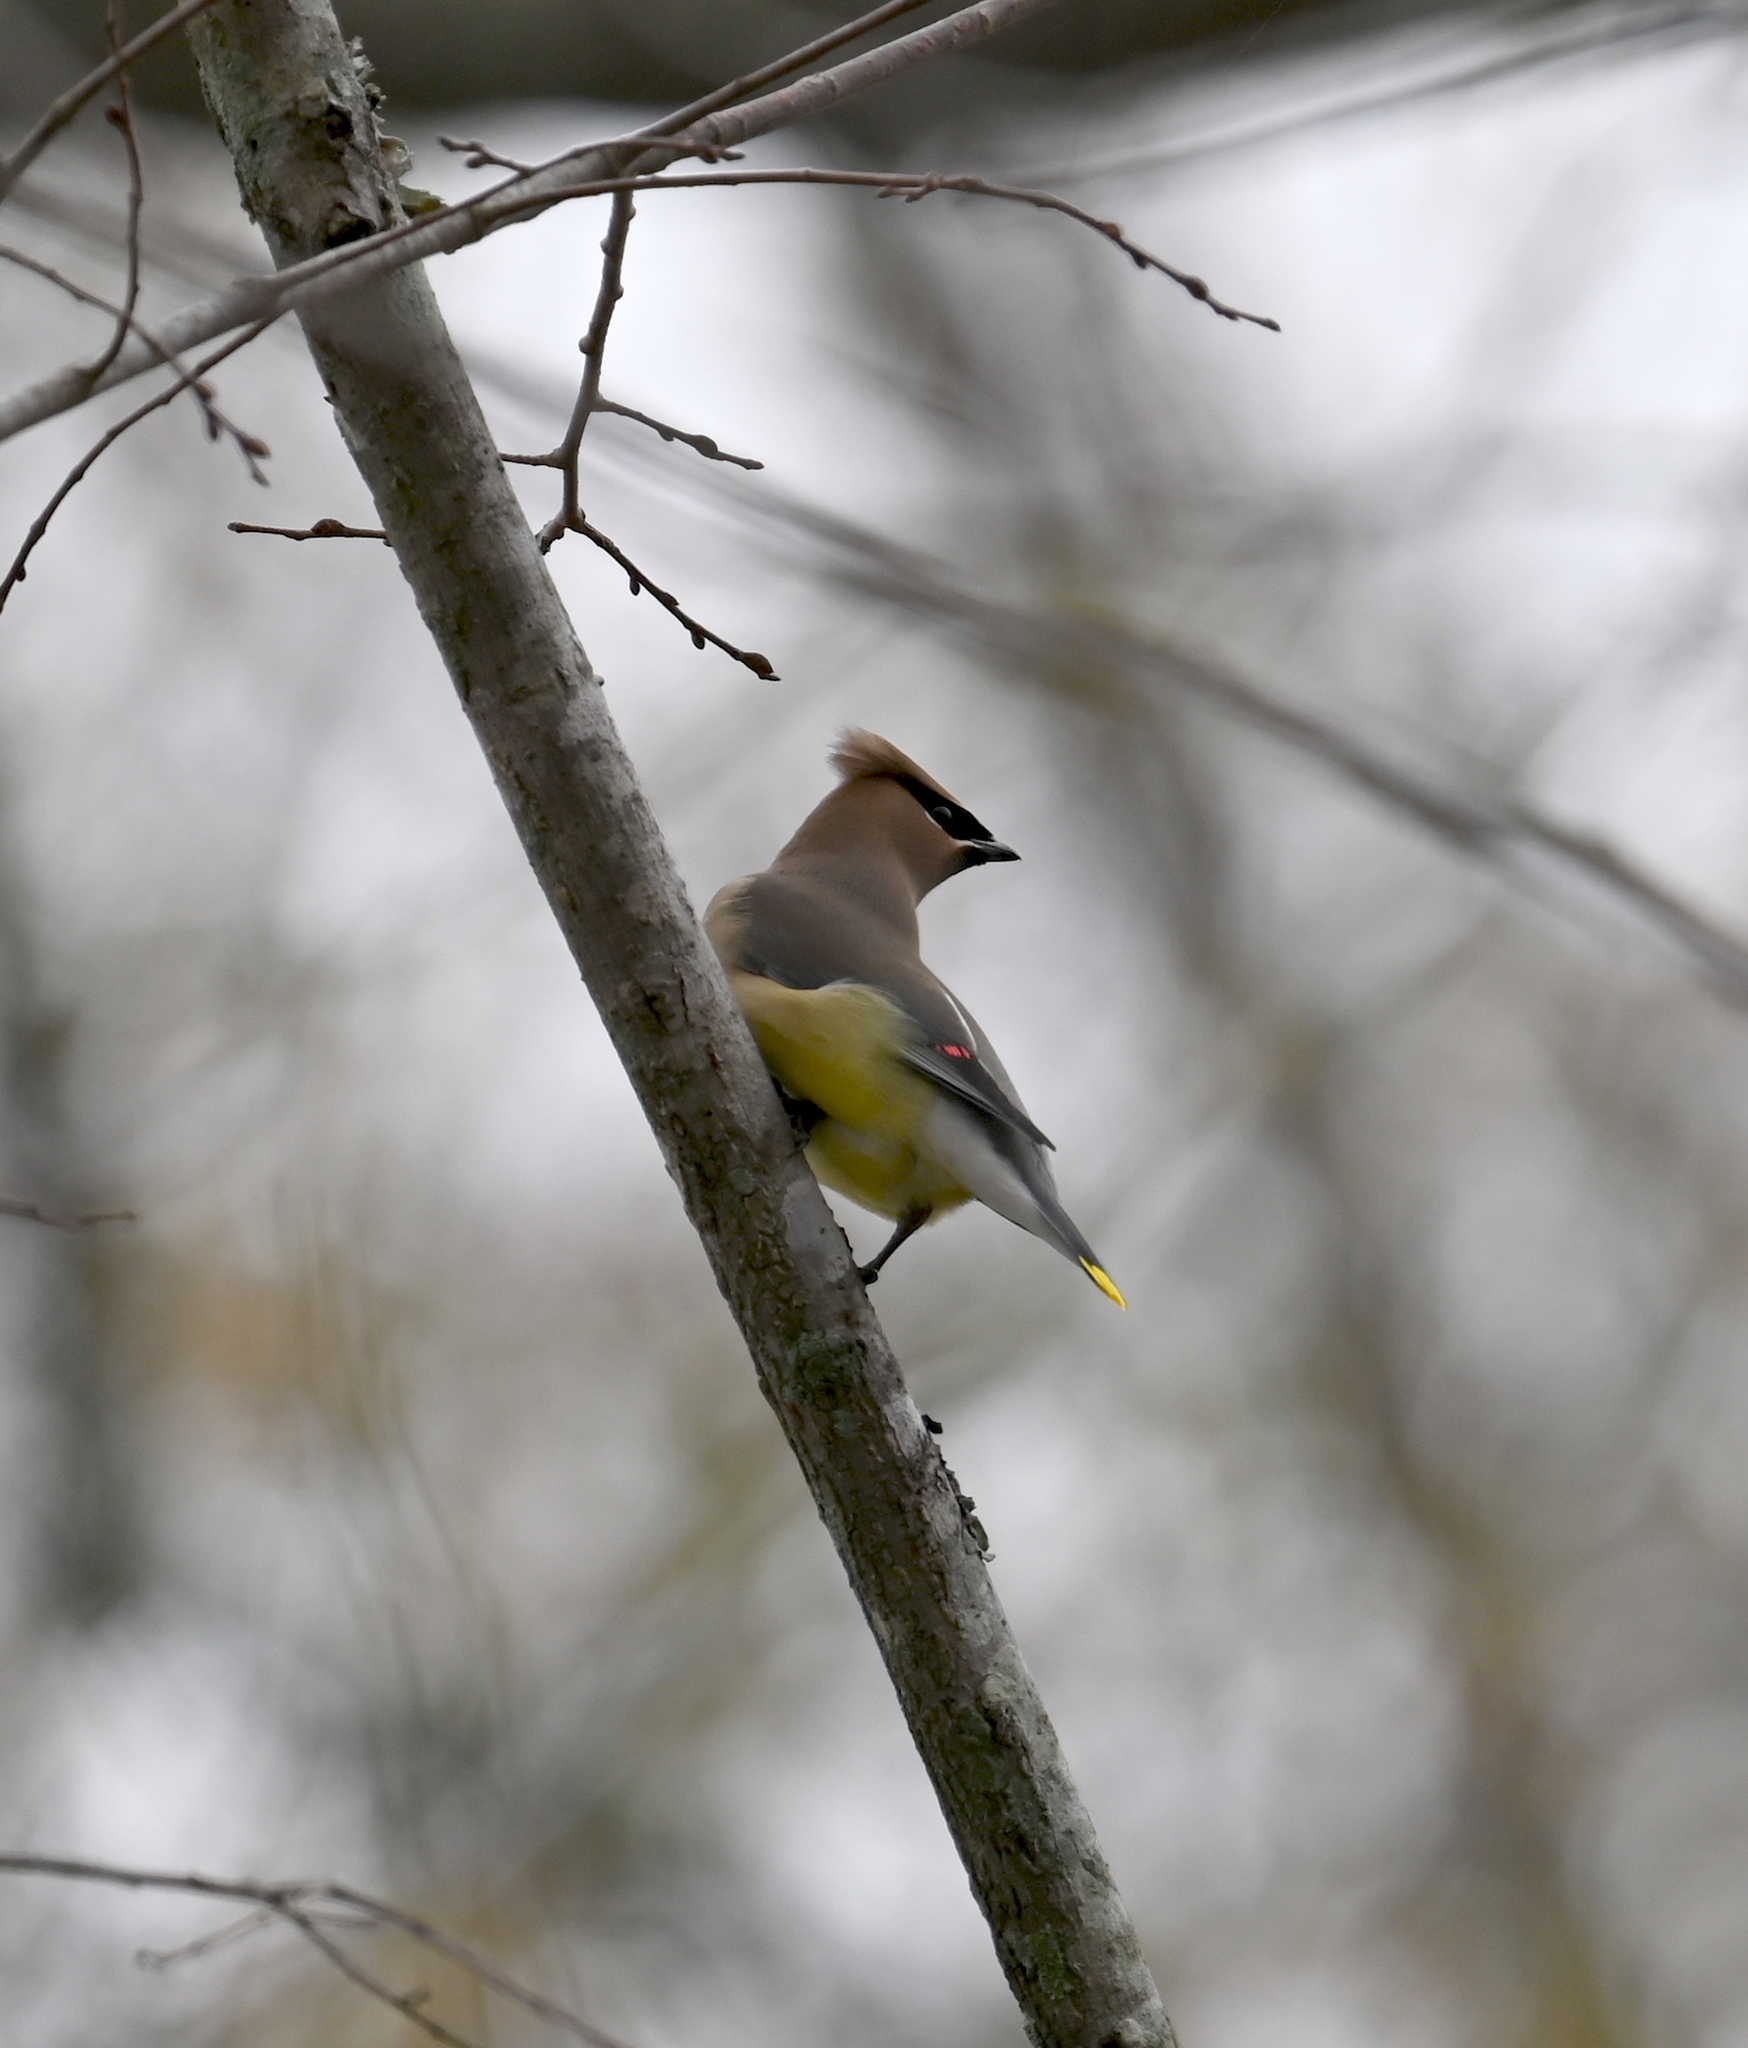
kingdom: Animalia
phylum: Chordata
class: Aves
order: Passeriformes
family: Bombycillidae
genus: Bombycilla
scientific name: Bombycilla cedrorum
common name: Cedar waxwing
